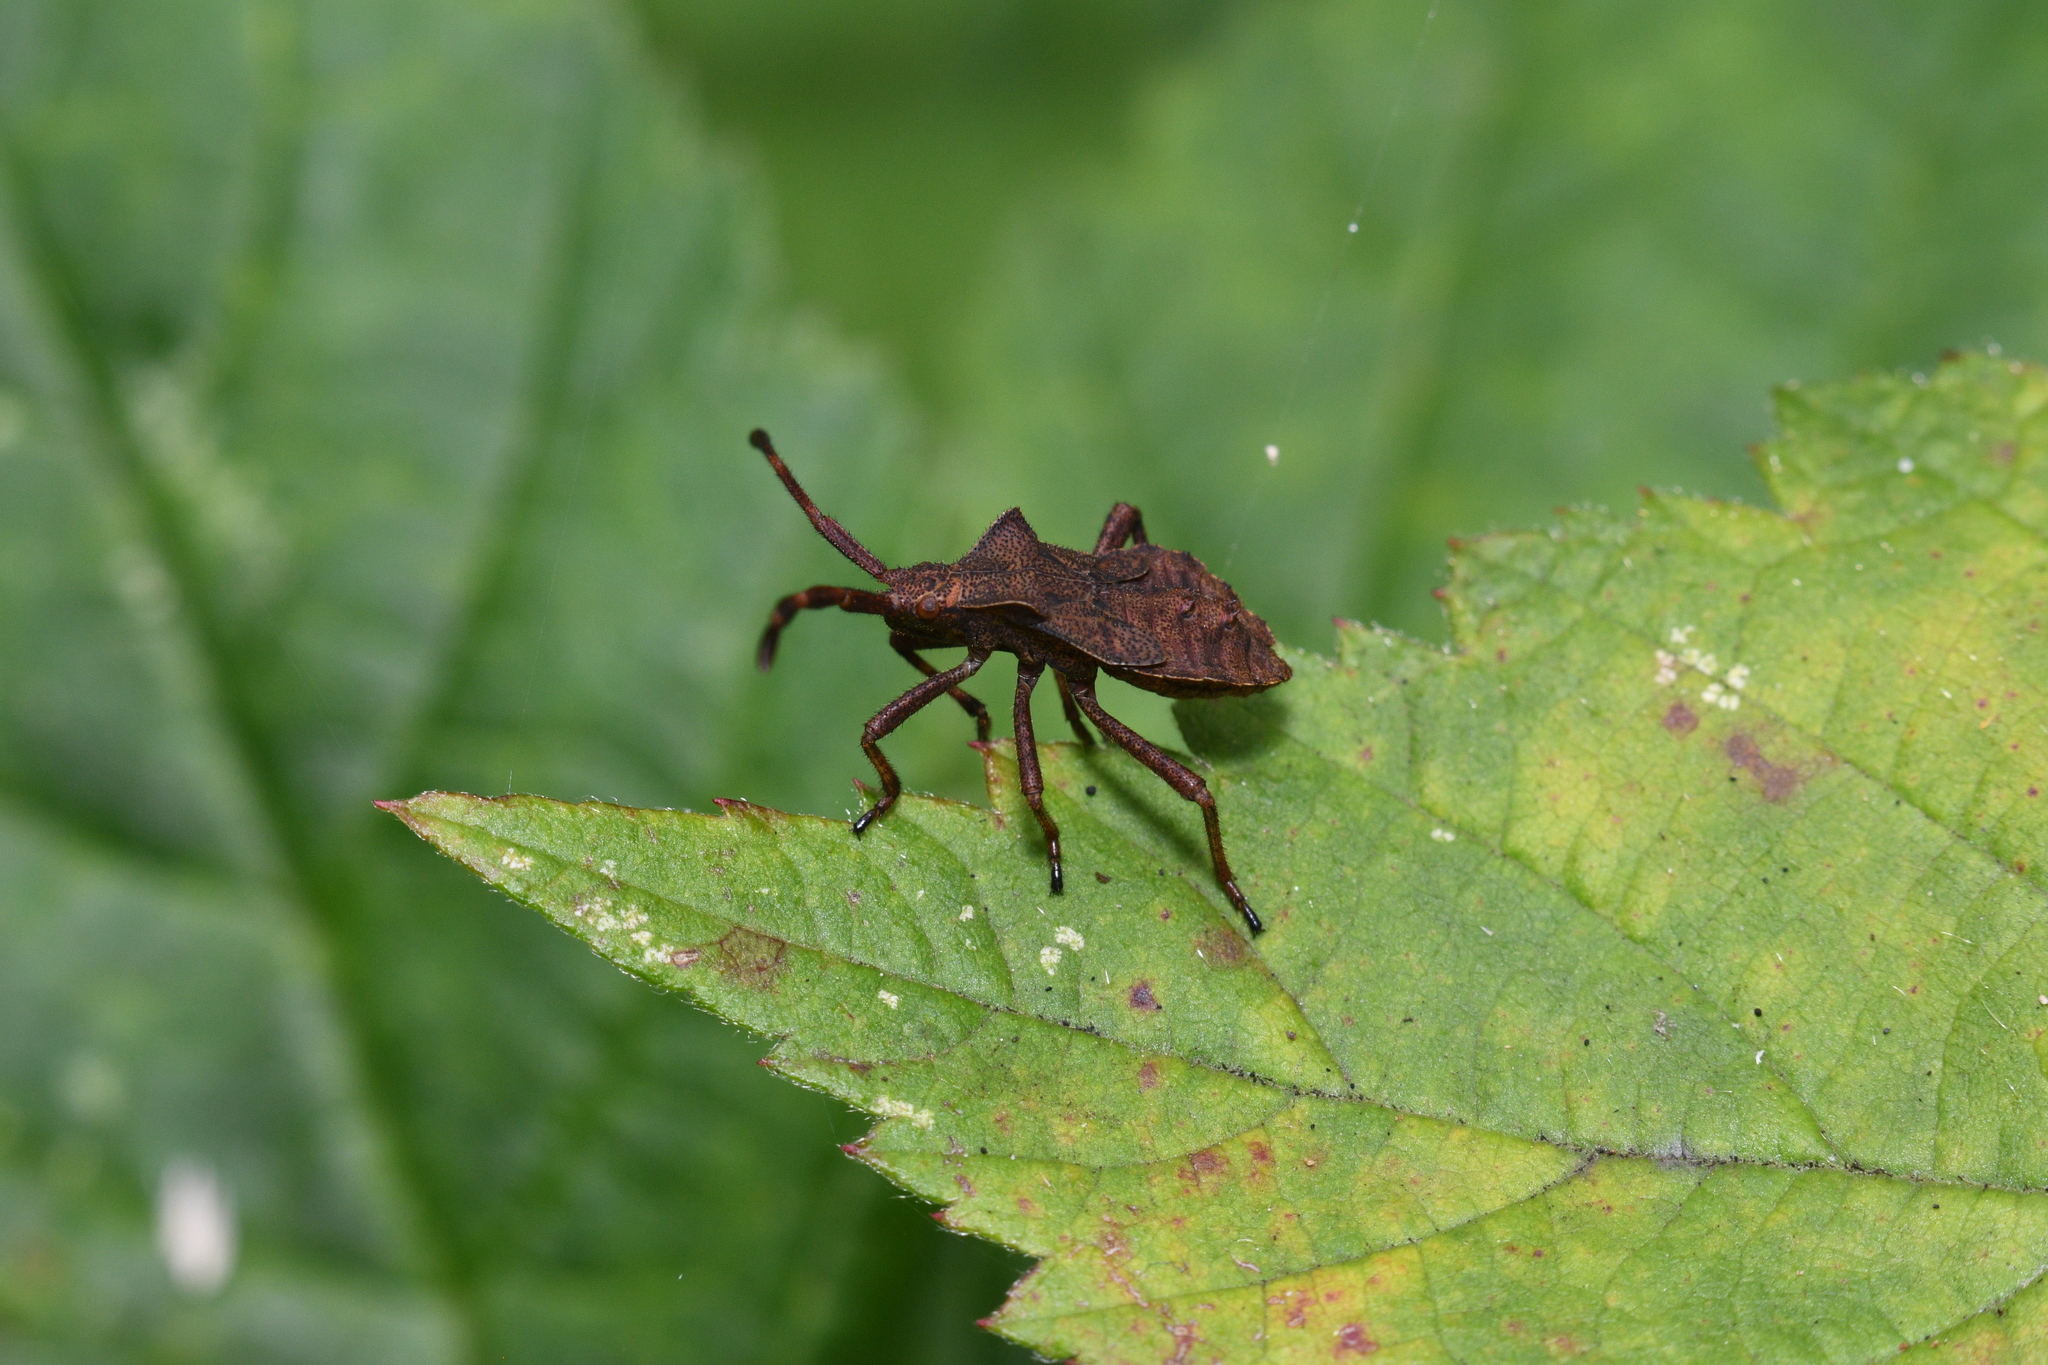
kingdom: Animalia
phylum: Arthropoda
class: Insecta
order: Hemiptera
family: Coreidae
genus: Coreus
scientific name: Coreus marginatus
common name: Dock bug
